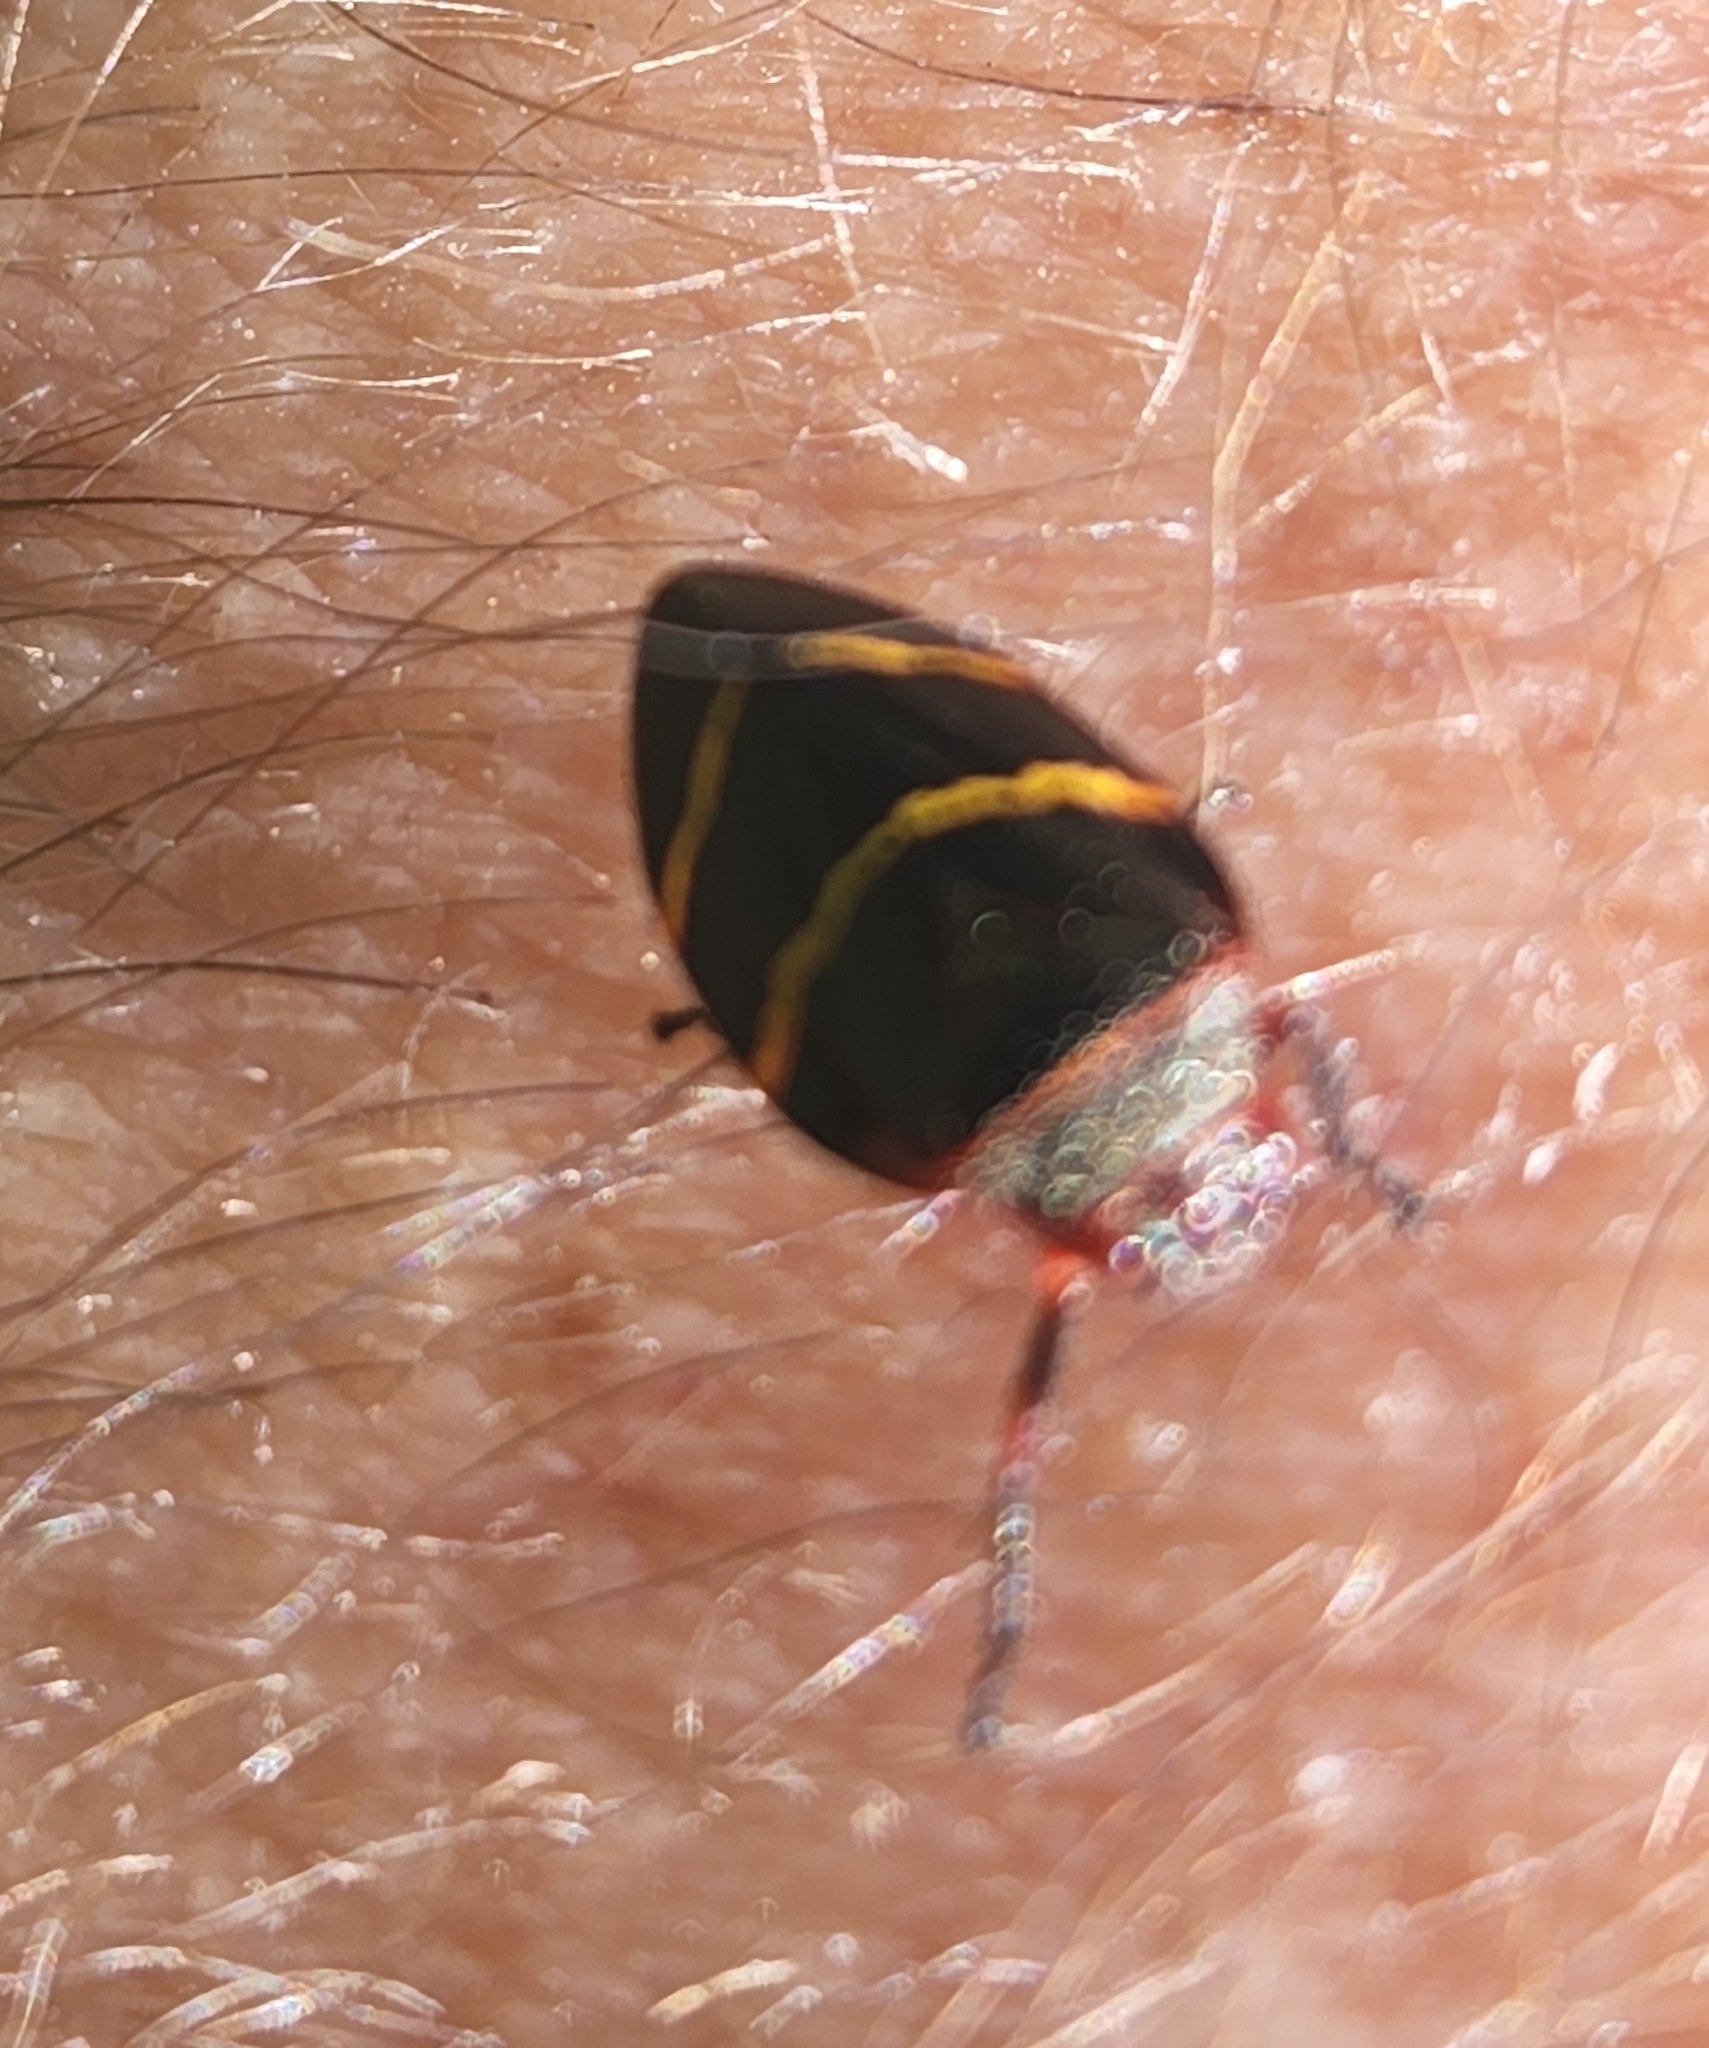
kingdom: Animalia
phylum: Arthropoda
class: Insecta
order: Hemiptera
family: Cercopidae
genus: Prosapia
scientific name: Prosapia bicincta
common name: Twolined spittlebug
